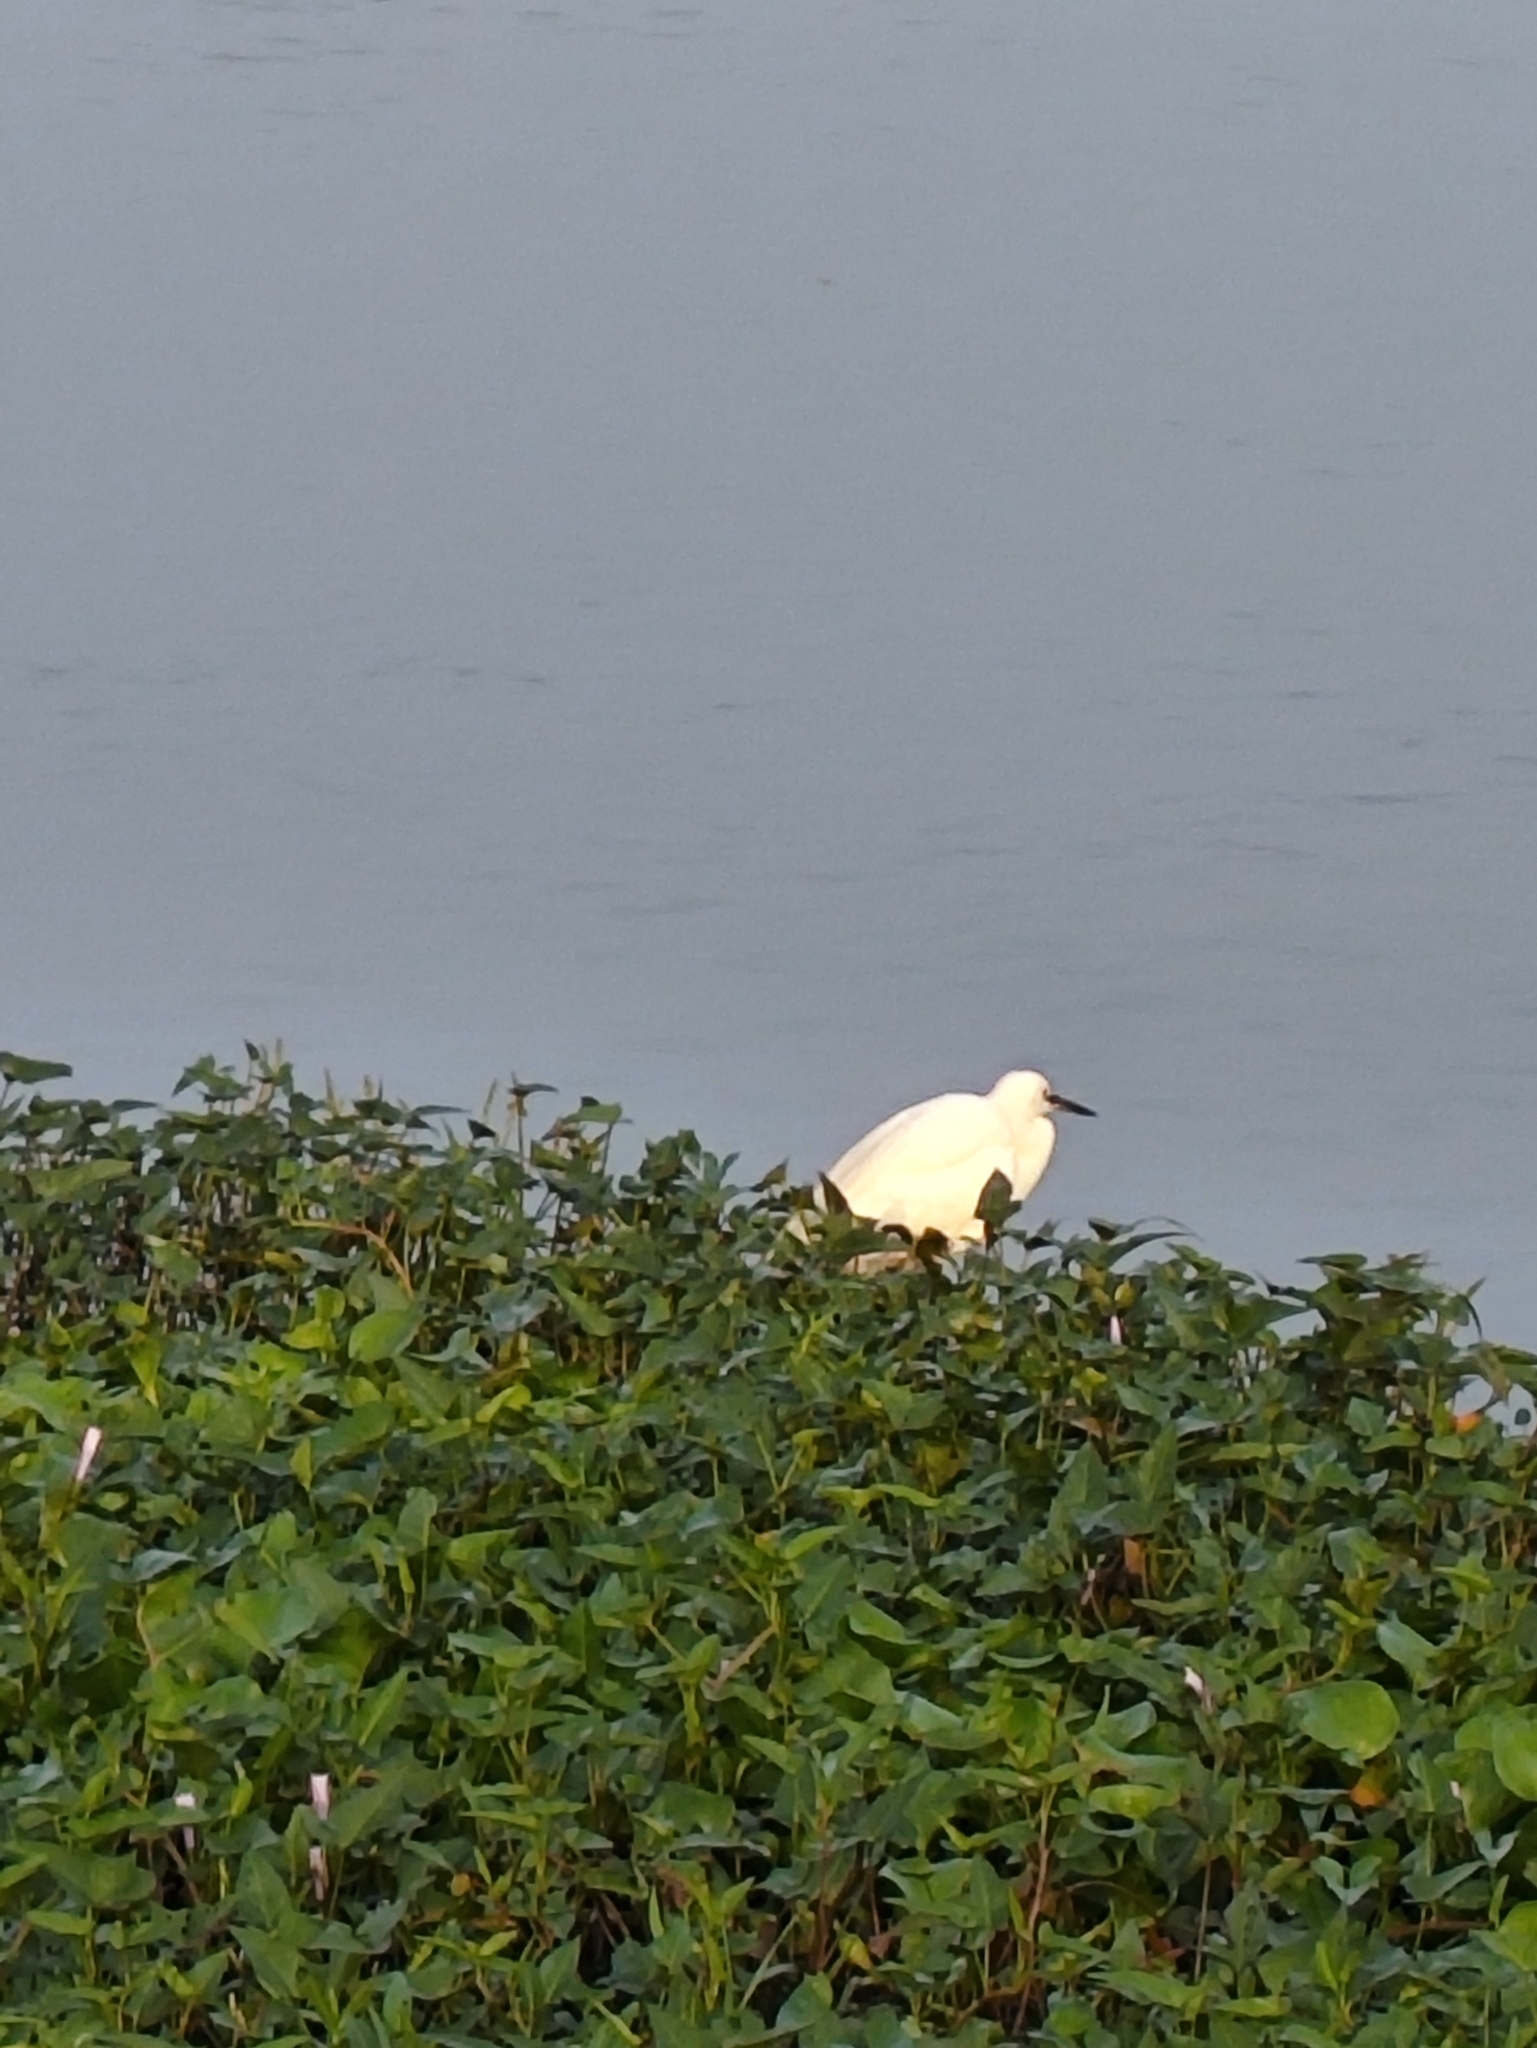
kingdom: Animalia
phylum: Chordata
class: Aves
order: Pelecaniformes
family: Ardeidae
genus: Egretta
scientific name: Egretta garzetta
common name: Little egret
